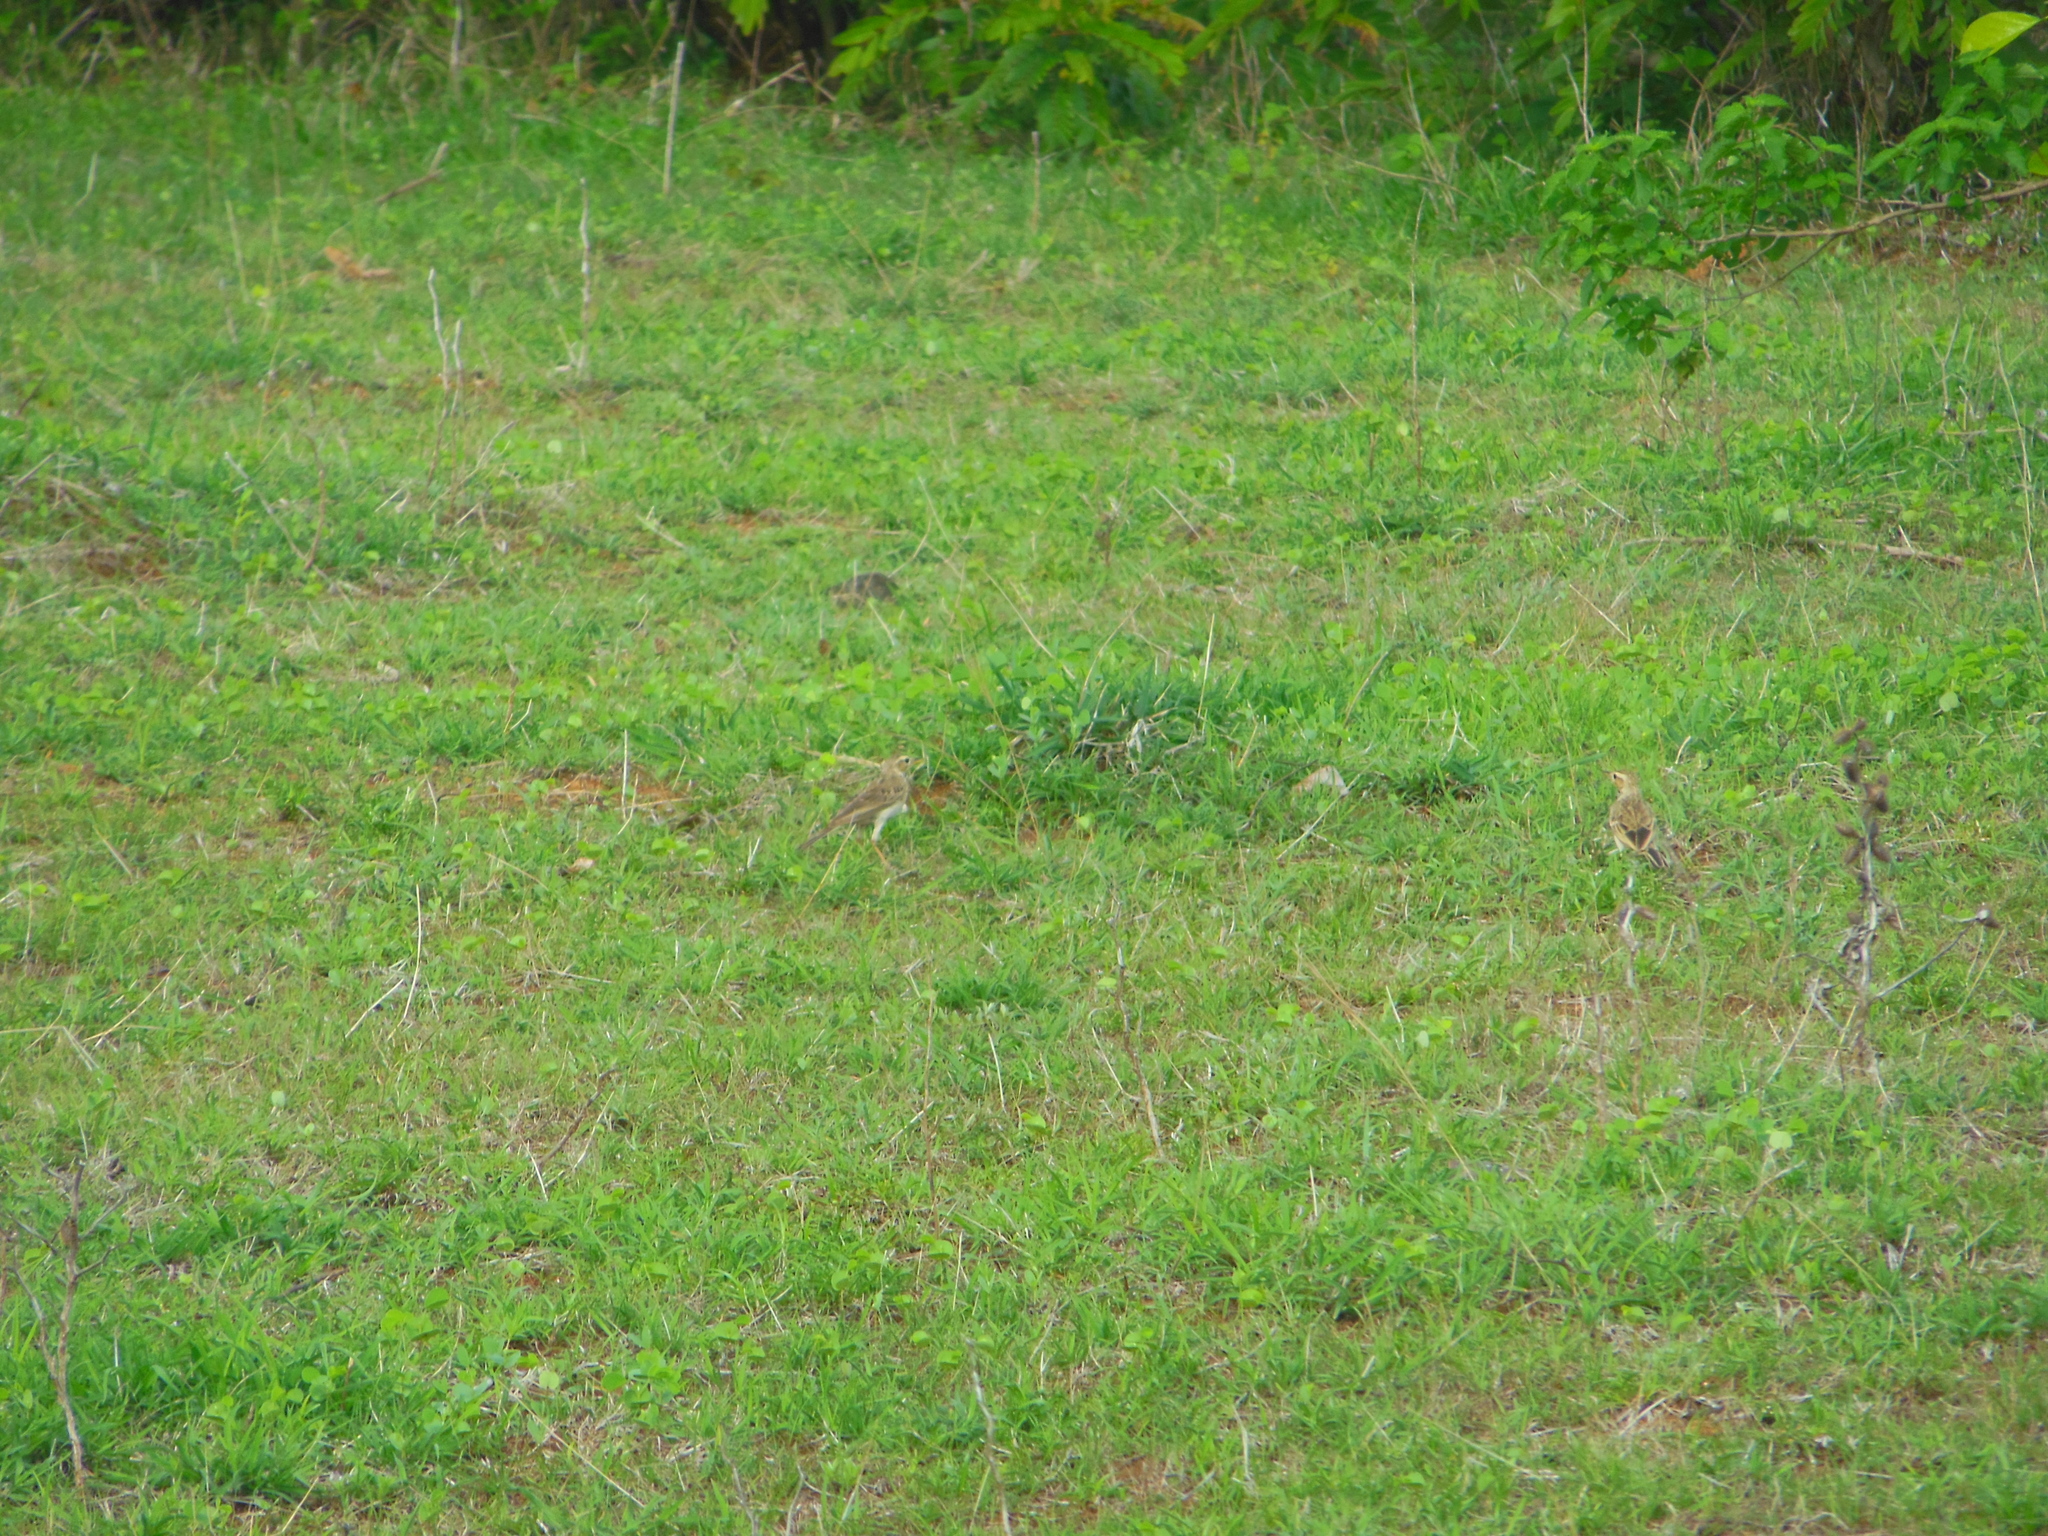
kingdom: Animalia
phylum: Chordata
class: Aves
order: Passeriformes
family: Motacillidae
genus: Anthus
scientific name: Anthus rufulus
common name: Paddyfield pipit
